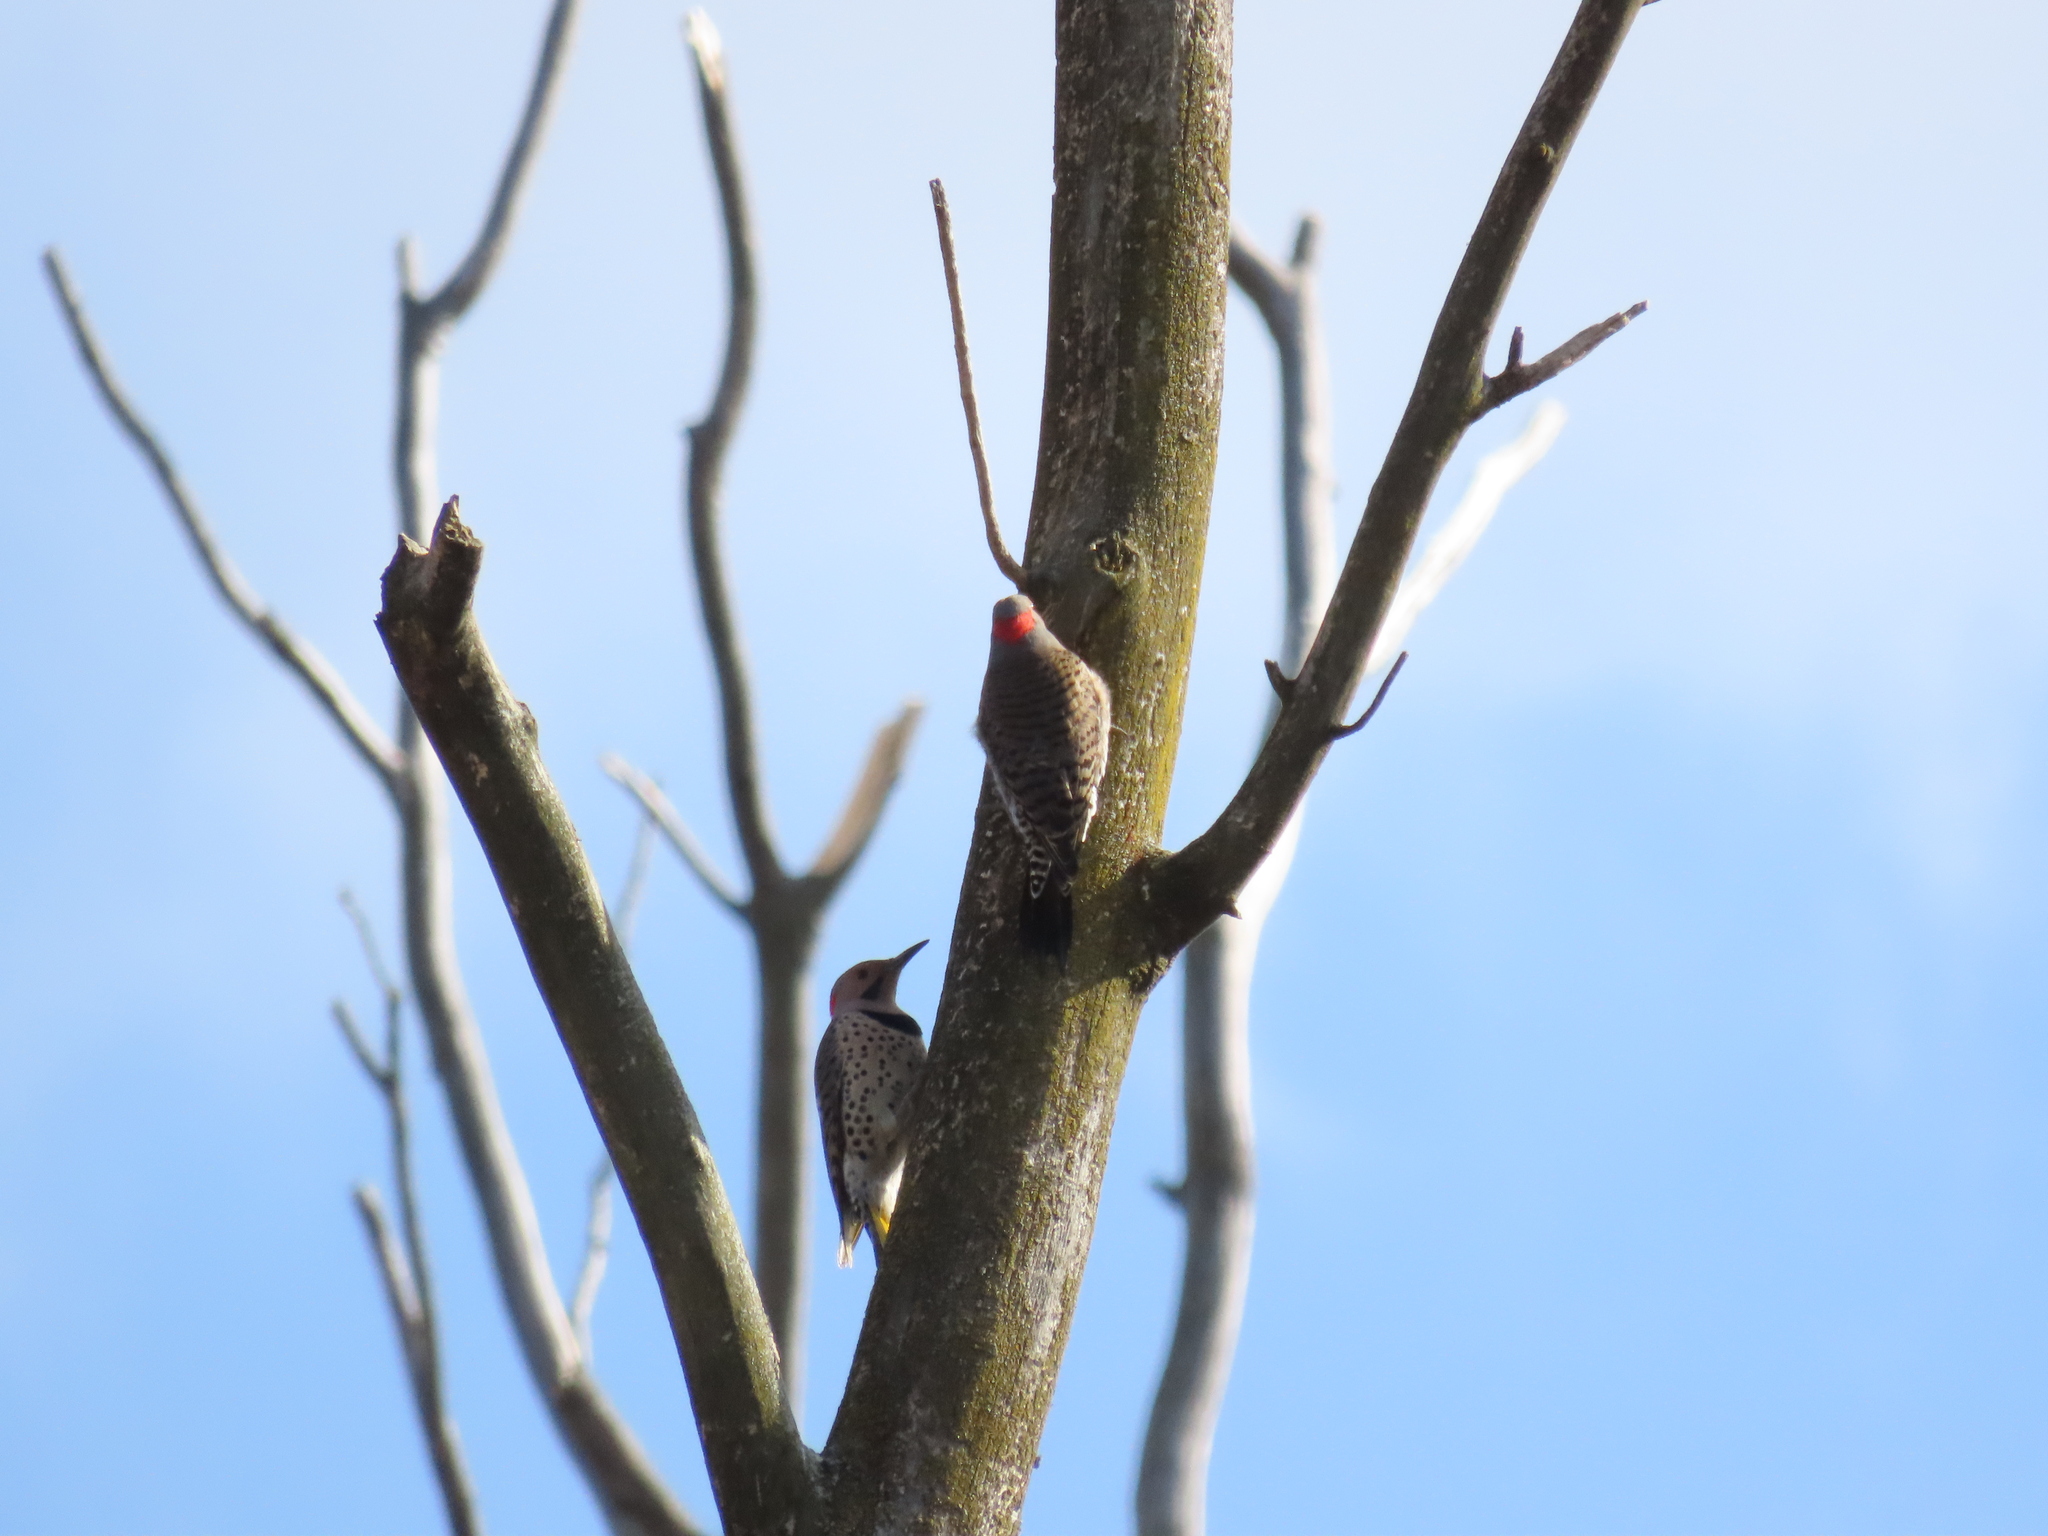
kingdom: Animalia
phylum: Chordata
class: Aves
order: Piciformes
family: Picidae
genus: Colaptes
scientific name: Colaptes auratus
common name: Northern flicker
